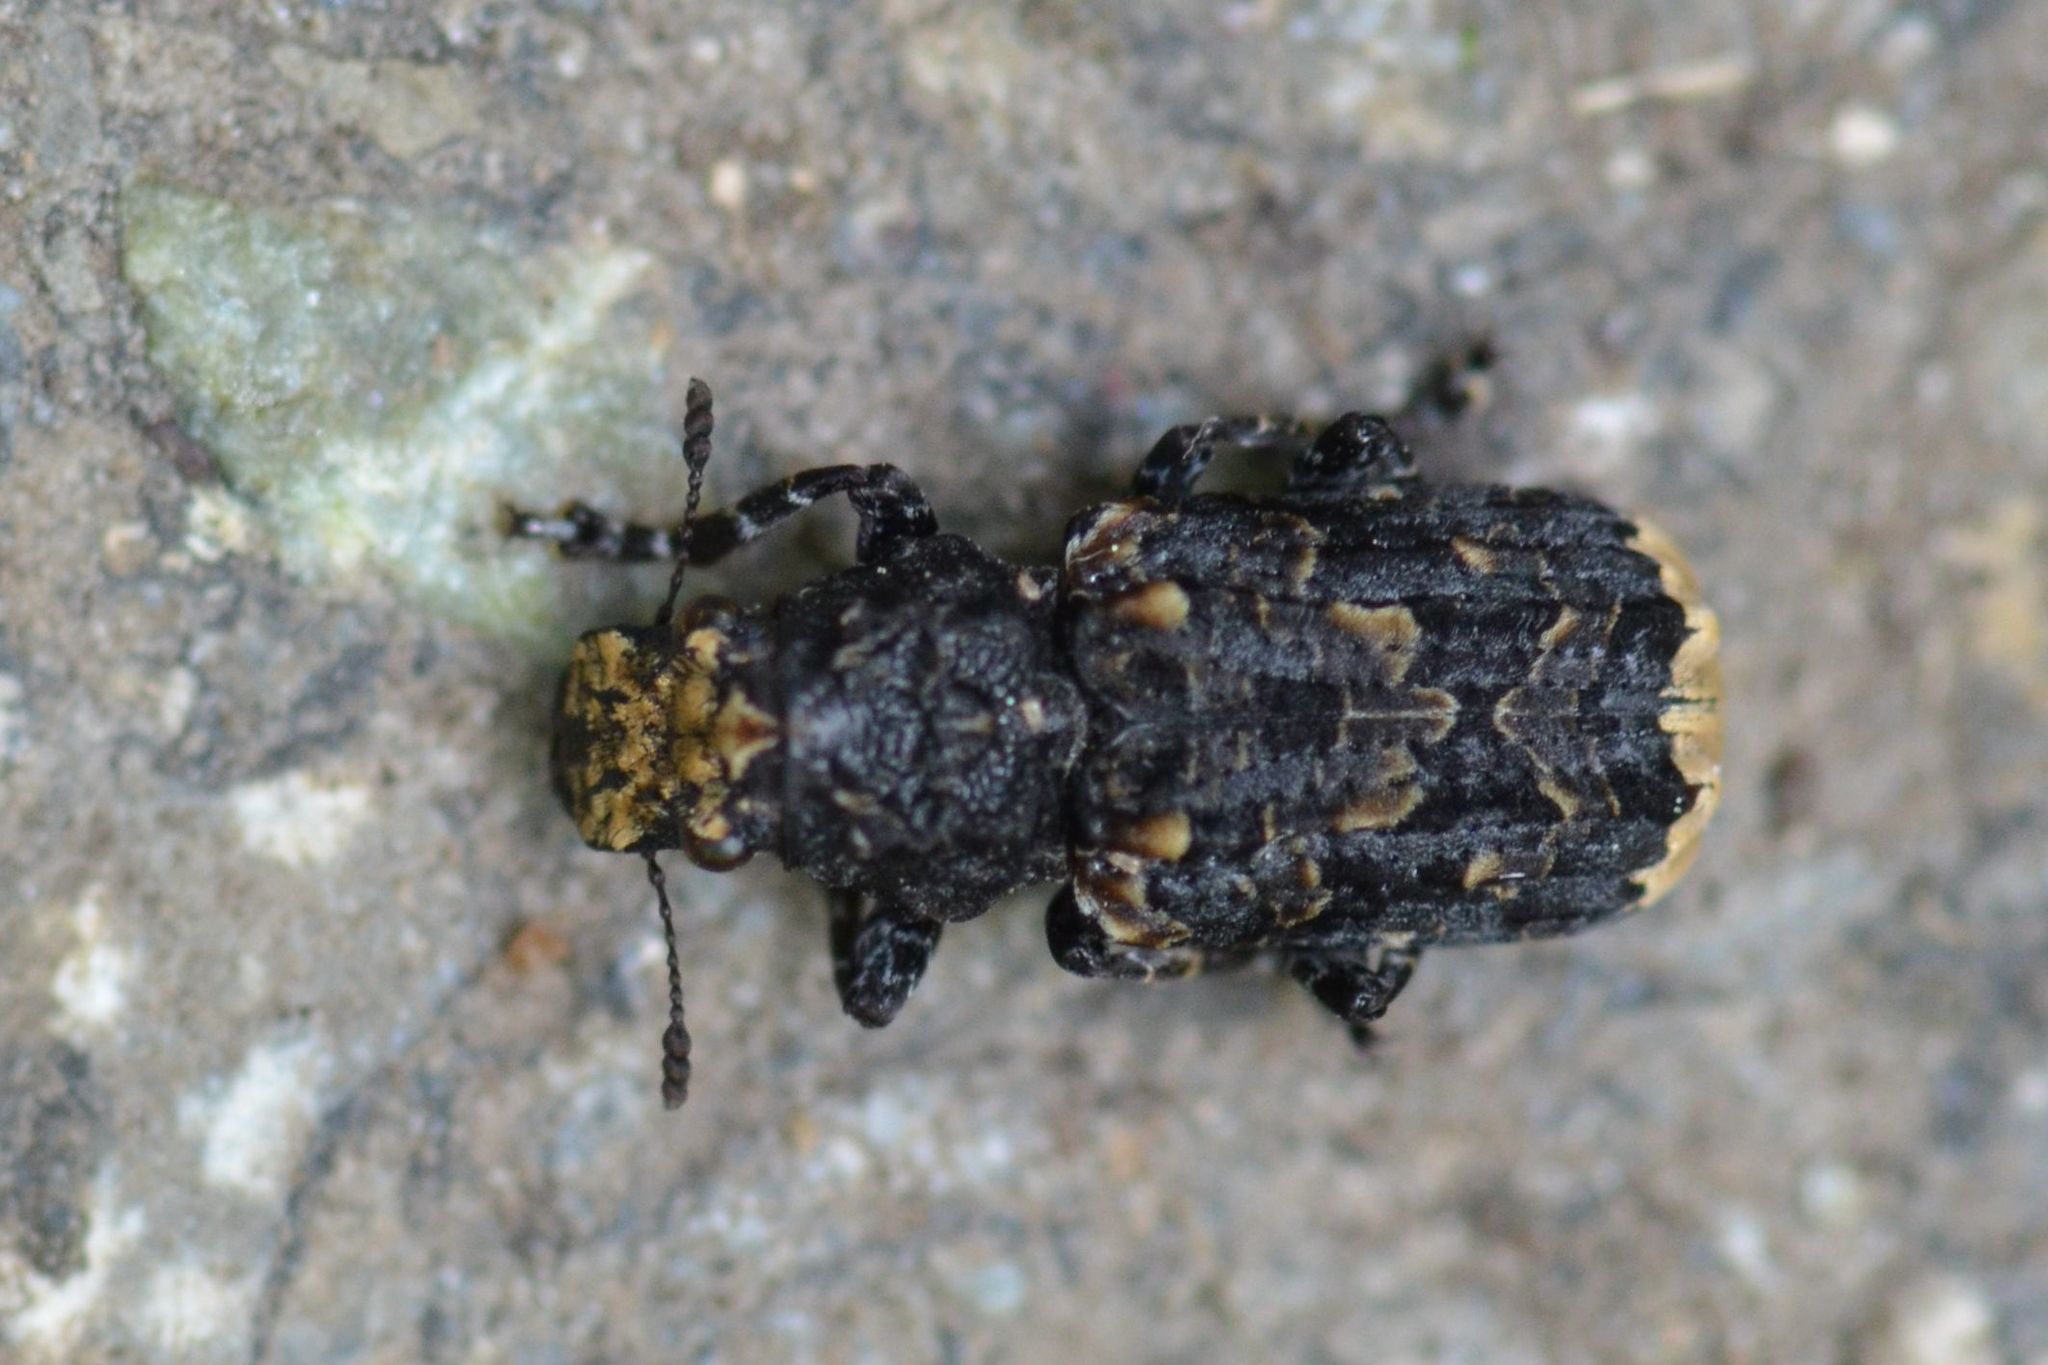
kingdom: Animalia
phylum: Arthropoda
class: Insecta
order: Coleoptera
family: Anthribidae
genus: Platyrhinus
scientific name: Platyrhinus resinosus
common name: Cramp-ball fungus weevil
